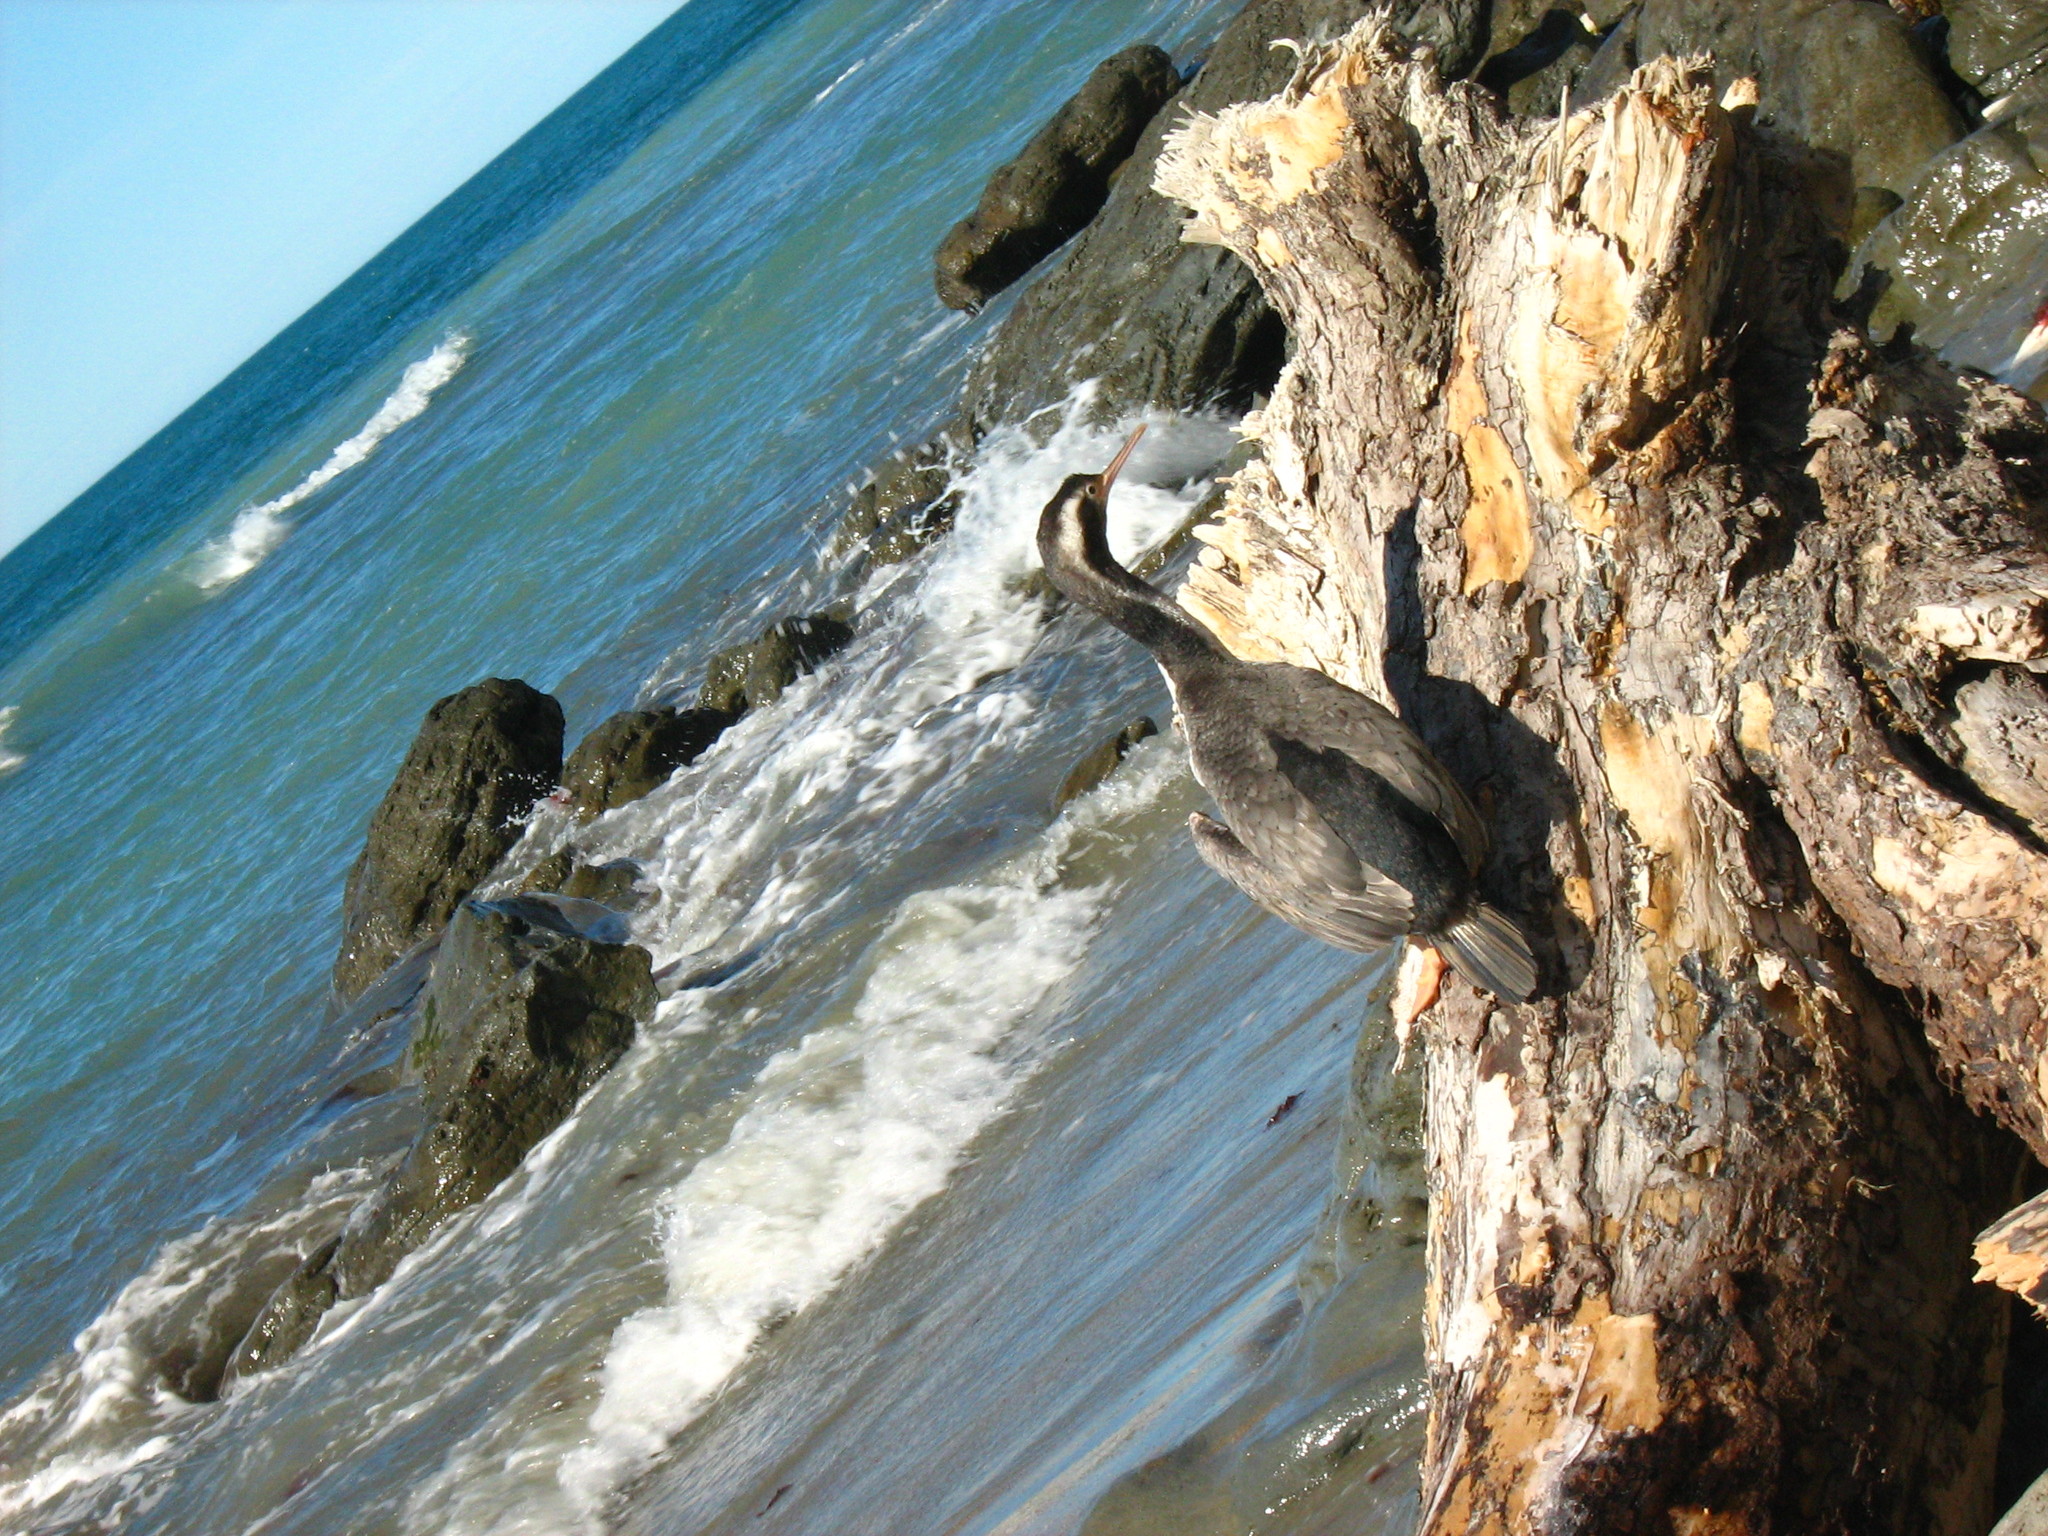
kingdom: Animalia
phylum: Chordata
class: Aves
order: Suliformes
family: Phalacrocoracidae
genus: Phalacrocorax
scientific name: Phalacrocorax punctatus
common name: Spotted shag
